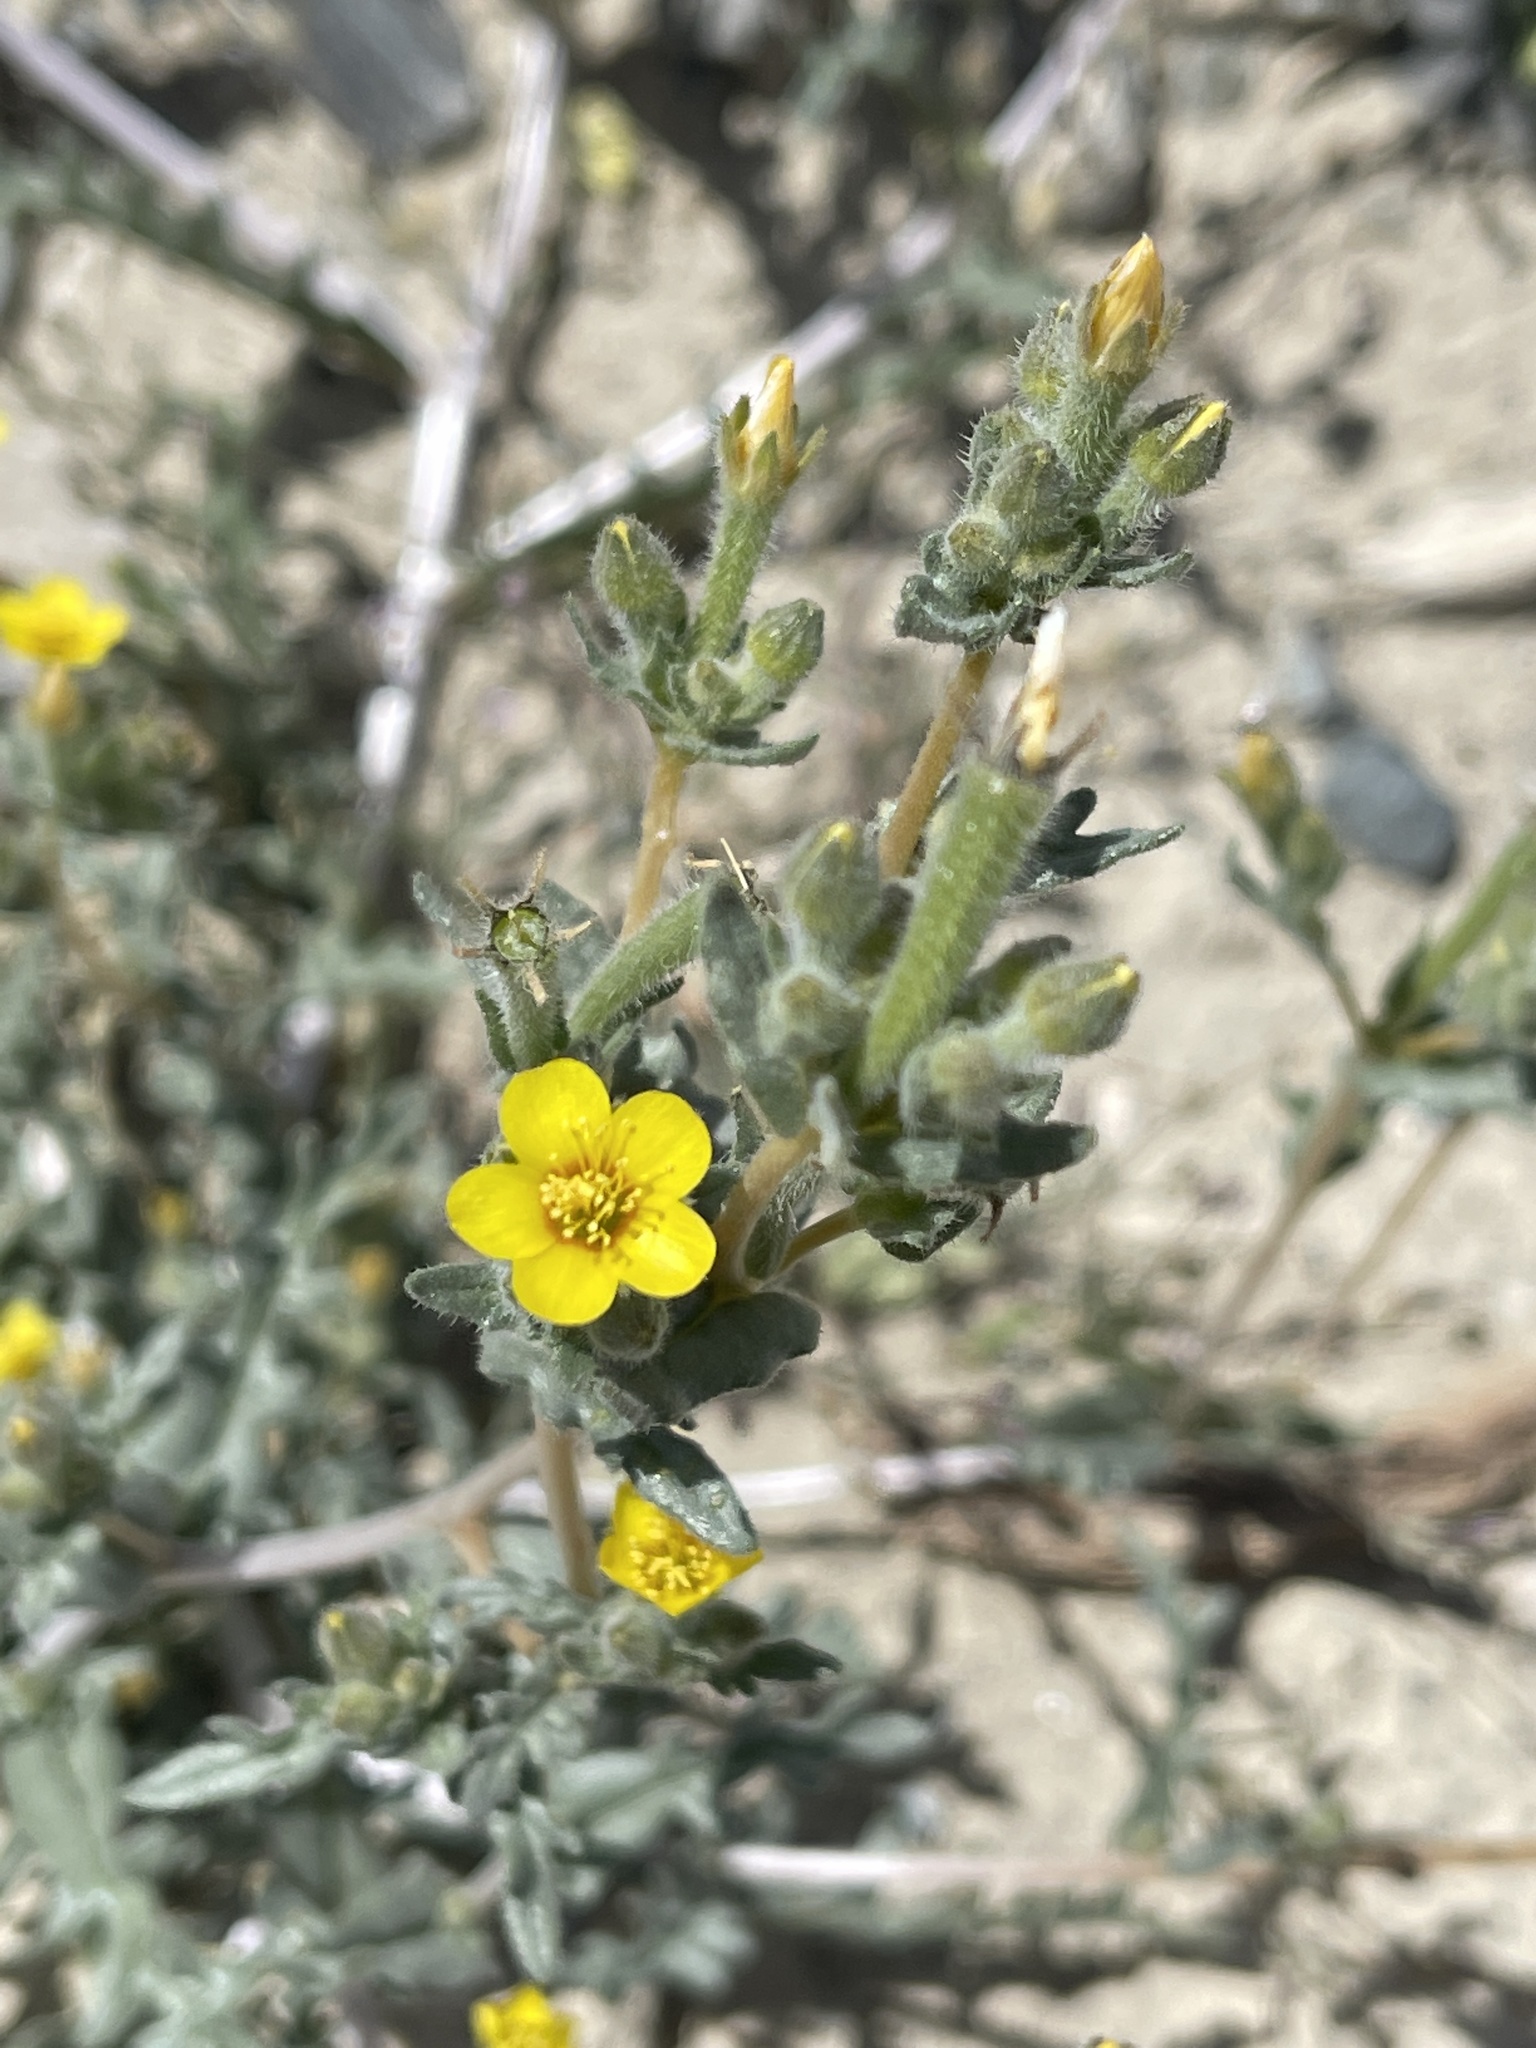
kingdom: Plantae
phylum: Tracheophyta
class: Magnoliopsida
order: Cornales
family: Loasaceae
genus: Mentzelia
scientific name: Mentzelia albicaulis
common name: White-stem blazingstar
